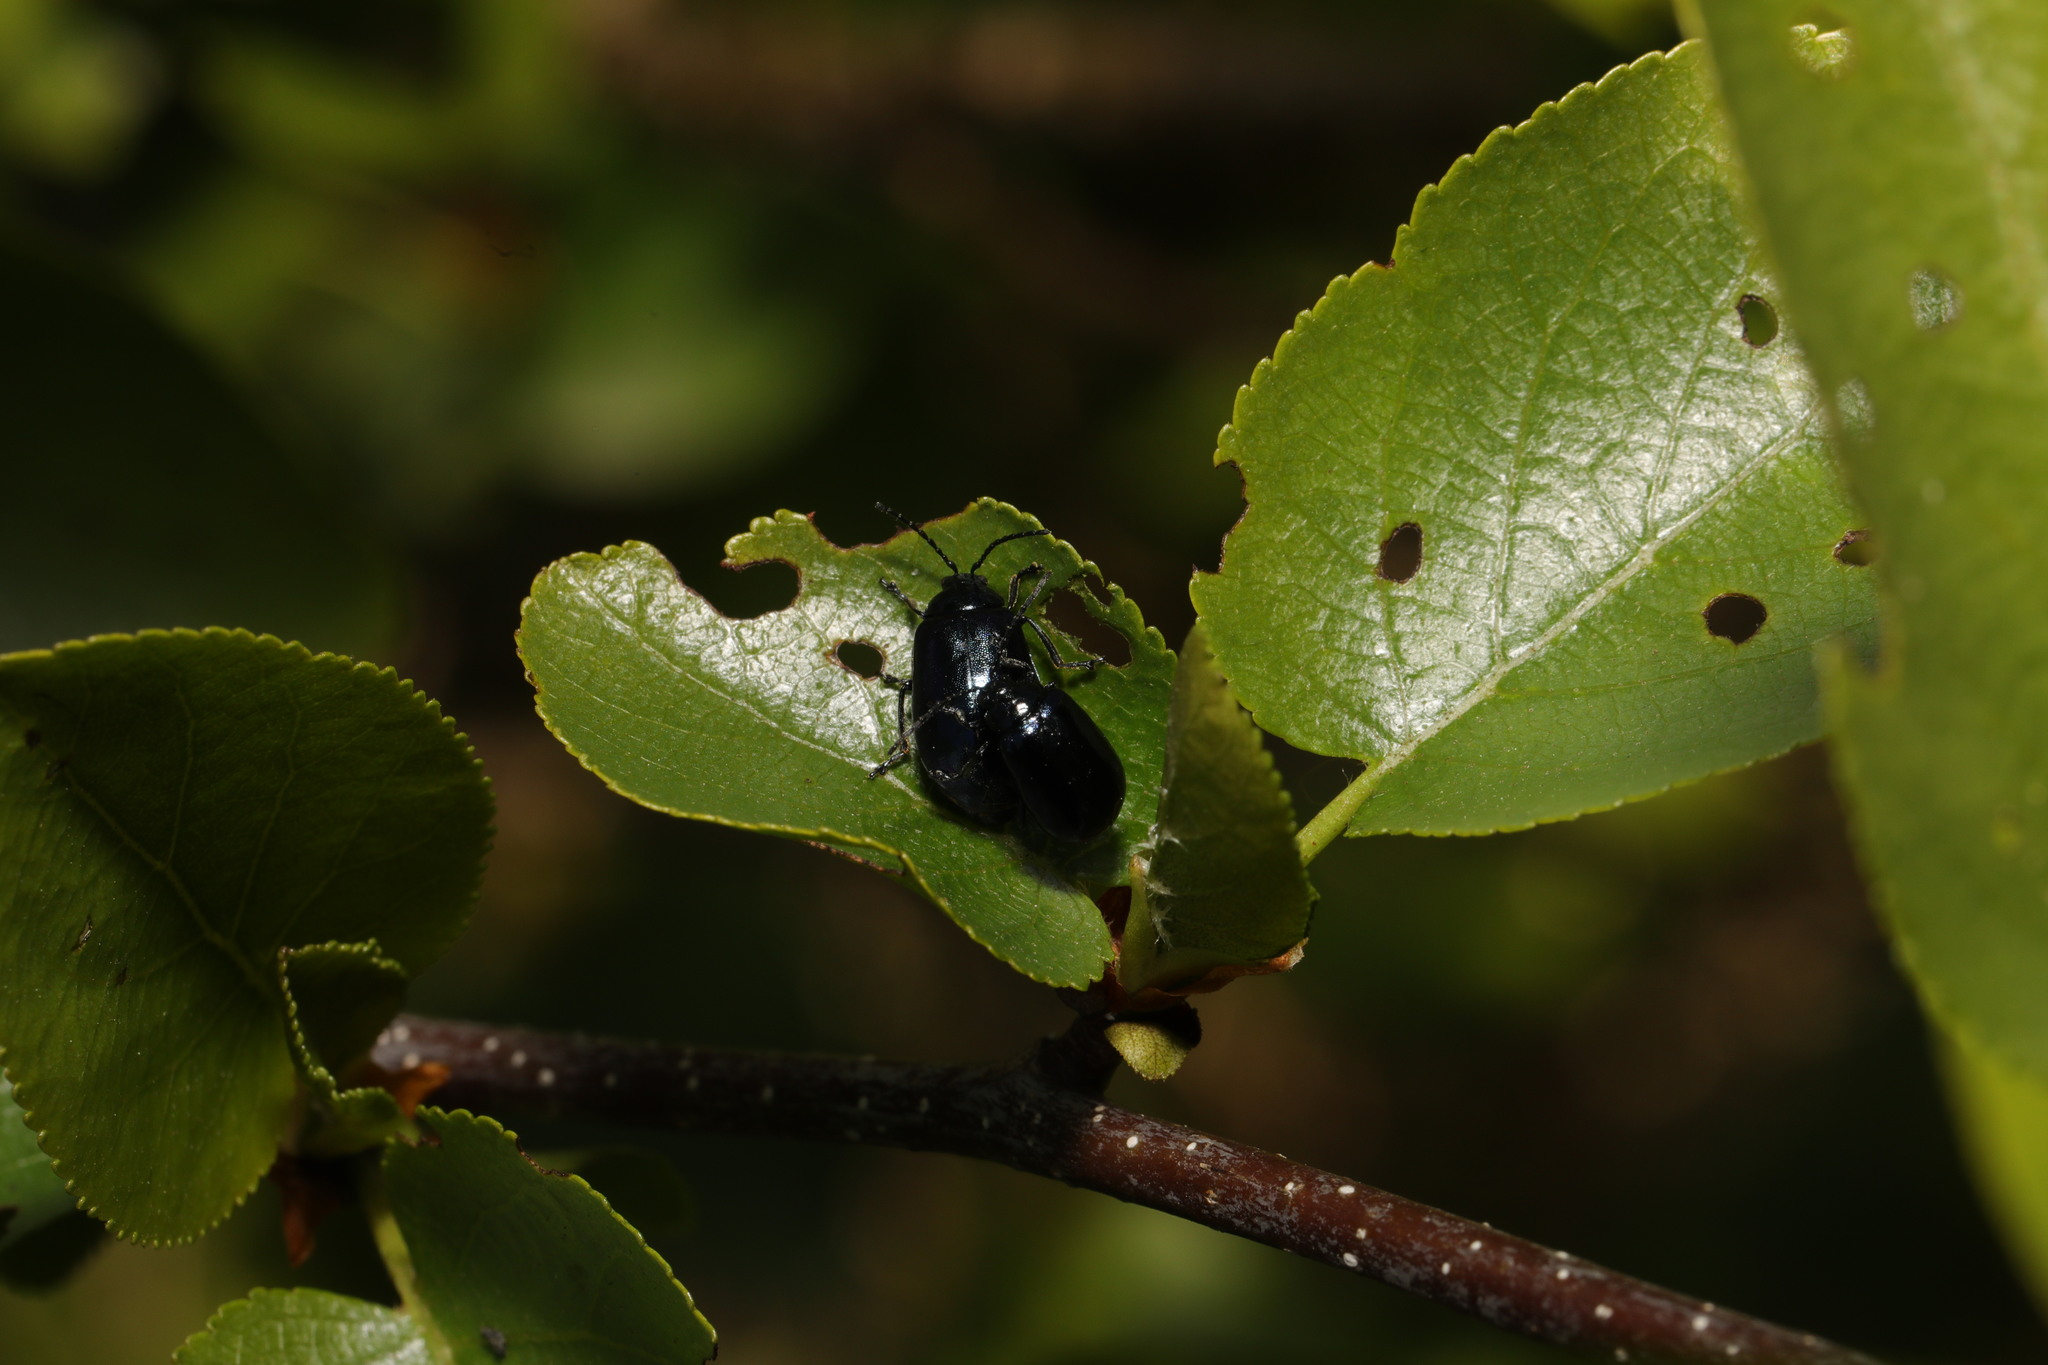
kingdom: Animalia
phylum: Arthropoda
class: Insecta
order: Coleoptera
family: Chrysomelidae
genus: Agelastica
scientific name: Agelastica alni
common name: Alder leaf beetle
